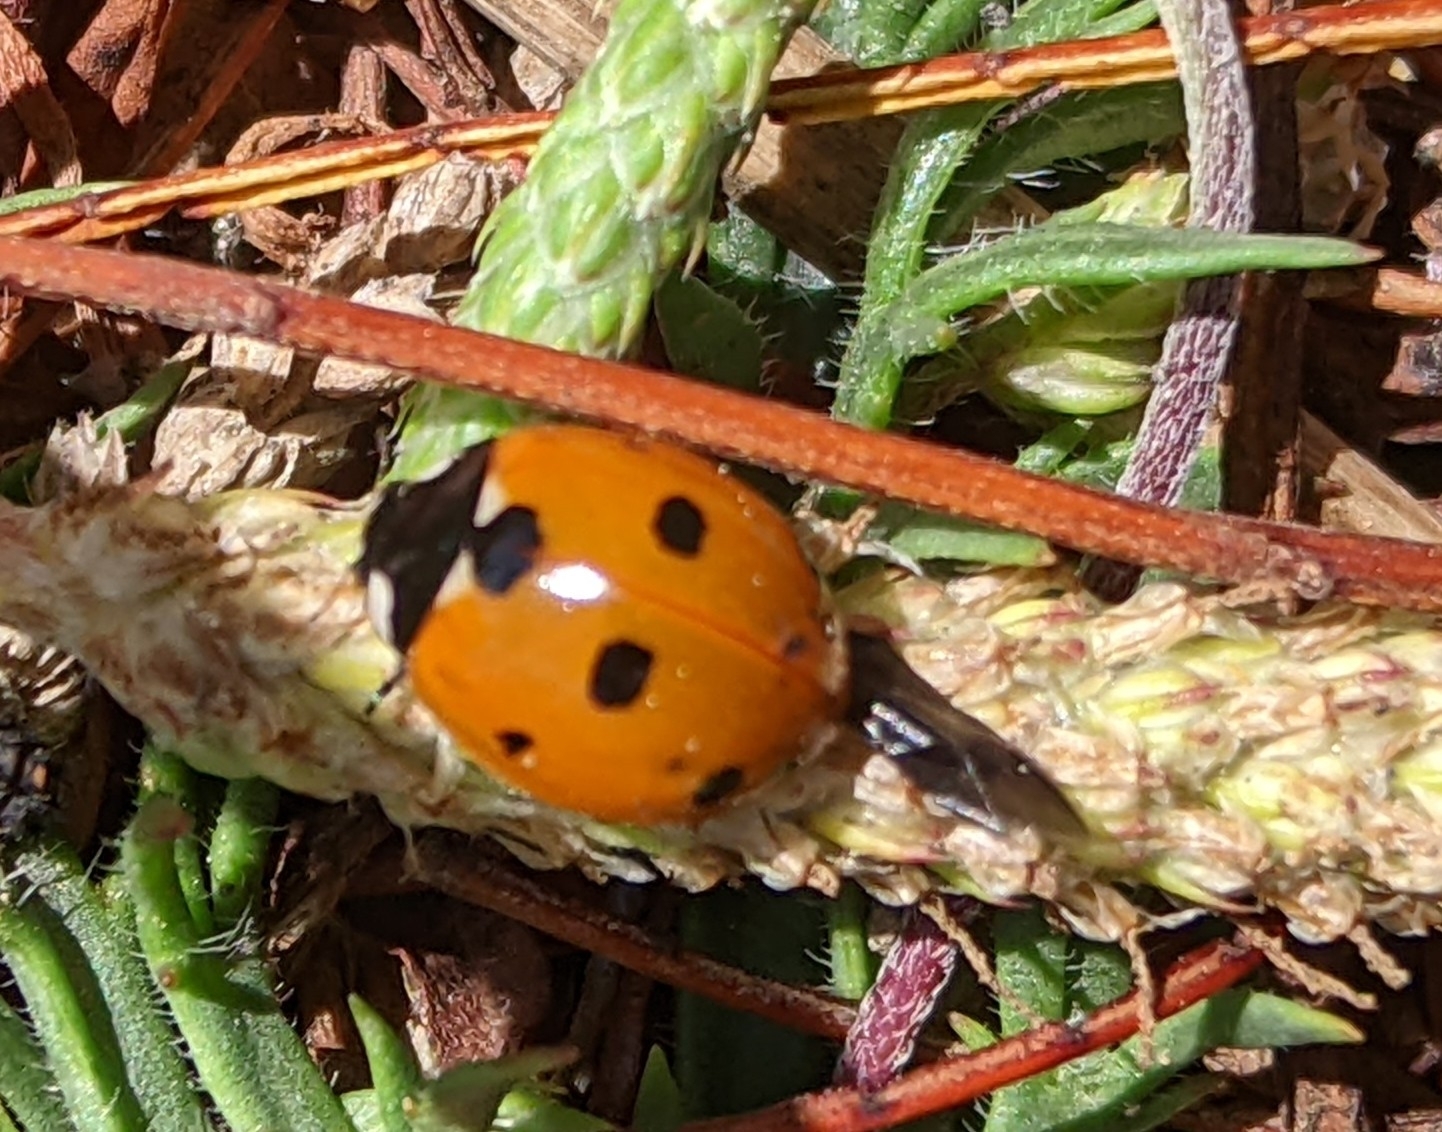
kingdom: Animalia
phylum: Arthropoda
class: Insecta
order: Coleoptera
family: Coccinellidae
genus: Coccinella
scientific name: Coccinella septempunctata
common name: Sevenspotted lady beetle
